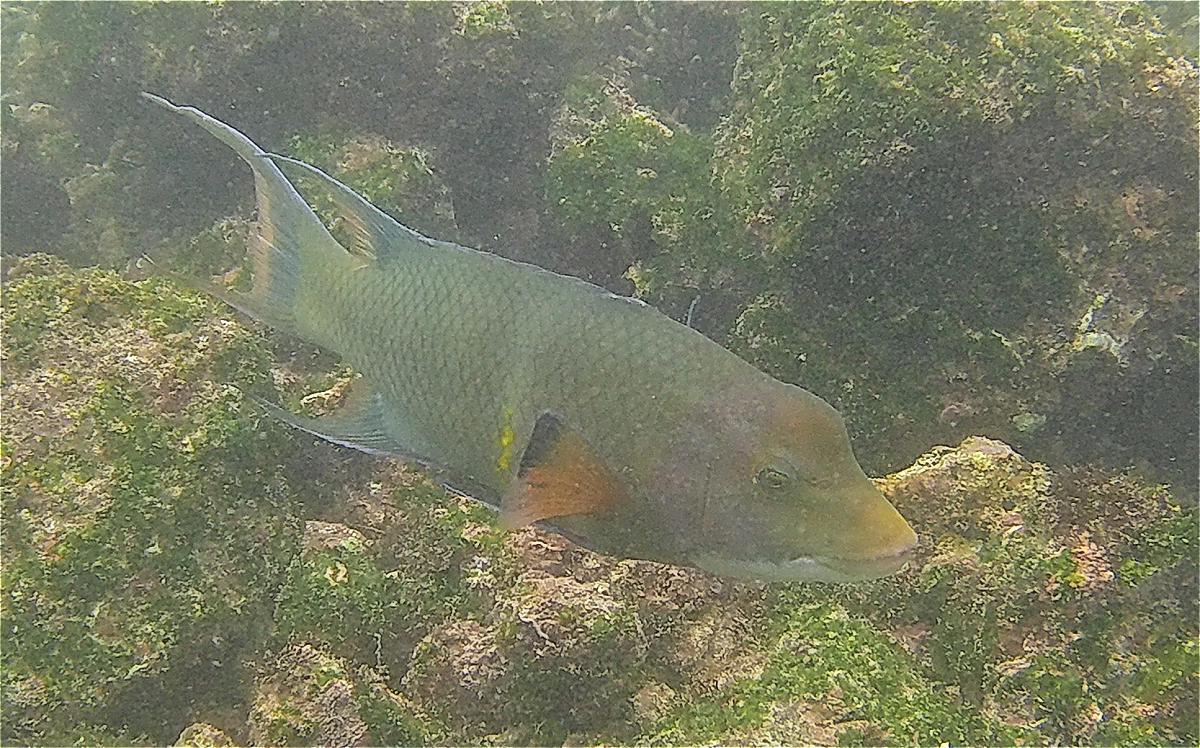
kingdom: Animalia
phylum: Chordata
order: Perciformes
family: Labridae
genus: Bodianus
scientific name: Bodianus diplotaenia
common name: Mexican hogfish
